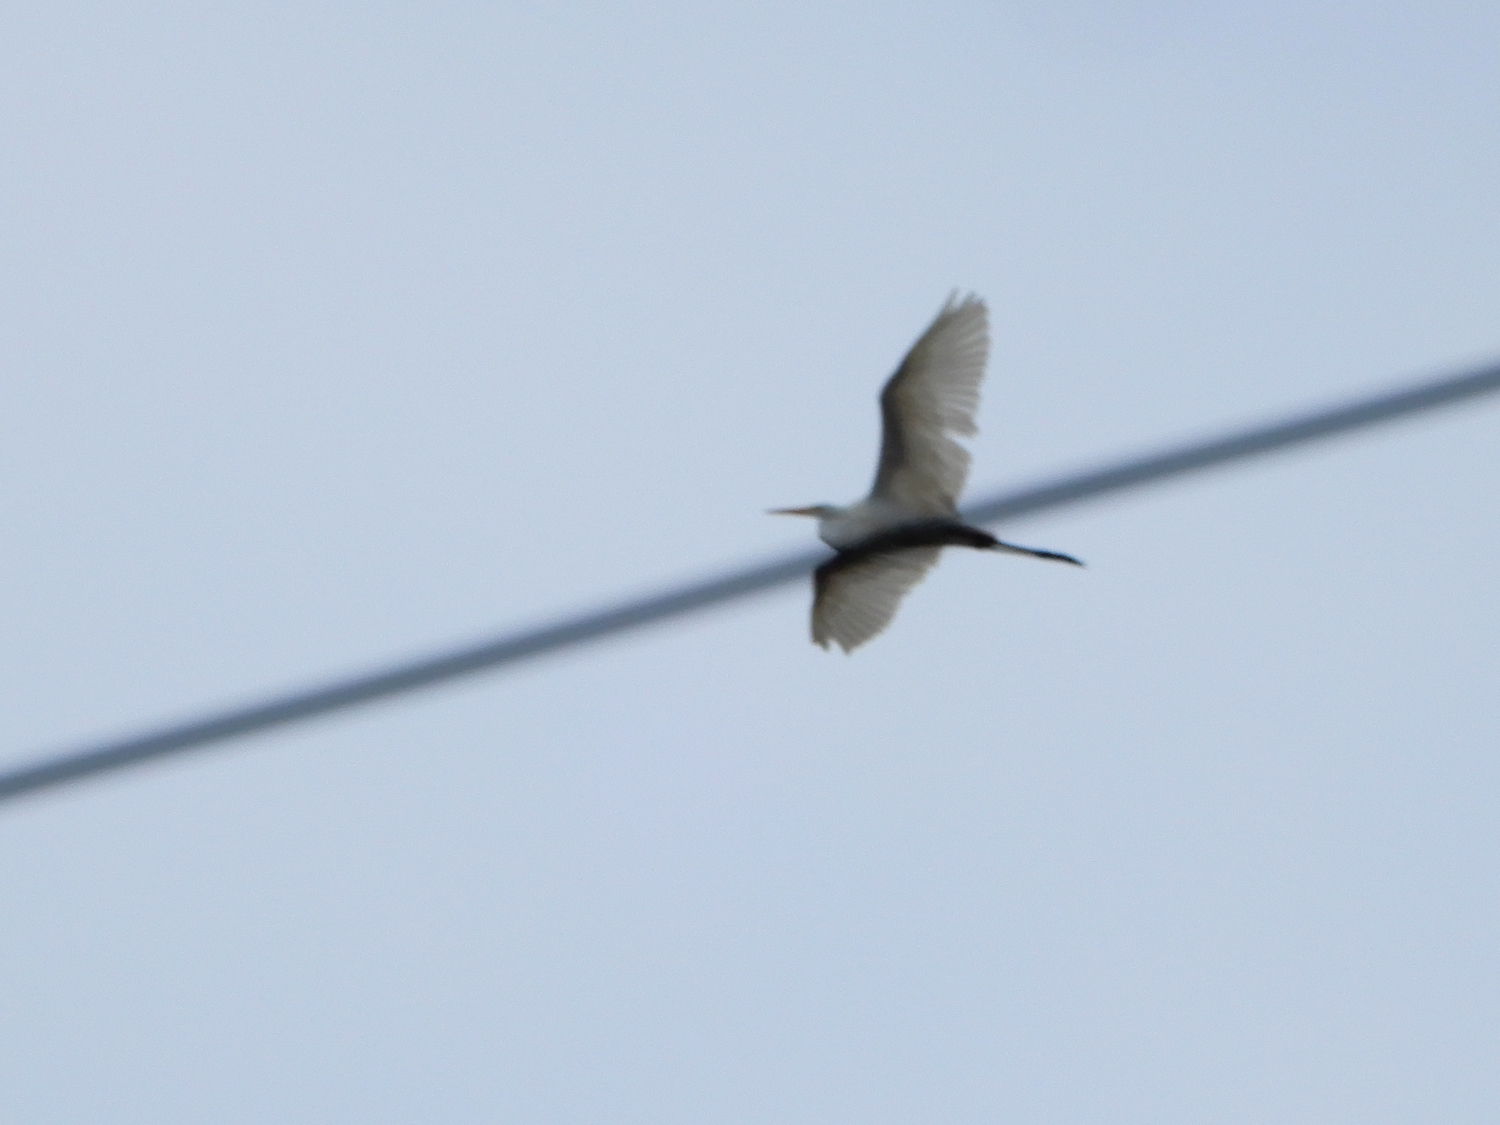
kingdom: Animalia
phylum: Chordata
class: Aves
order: Pelecaniformes
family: Ardeidae
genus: Ardea
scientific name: Ardea alba
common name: Great egret
